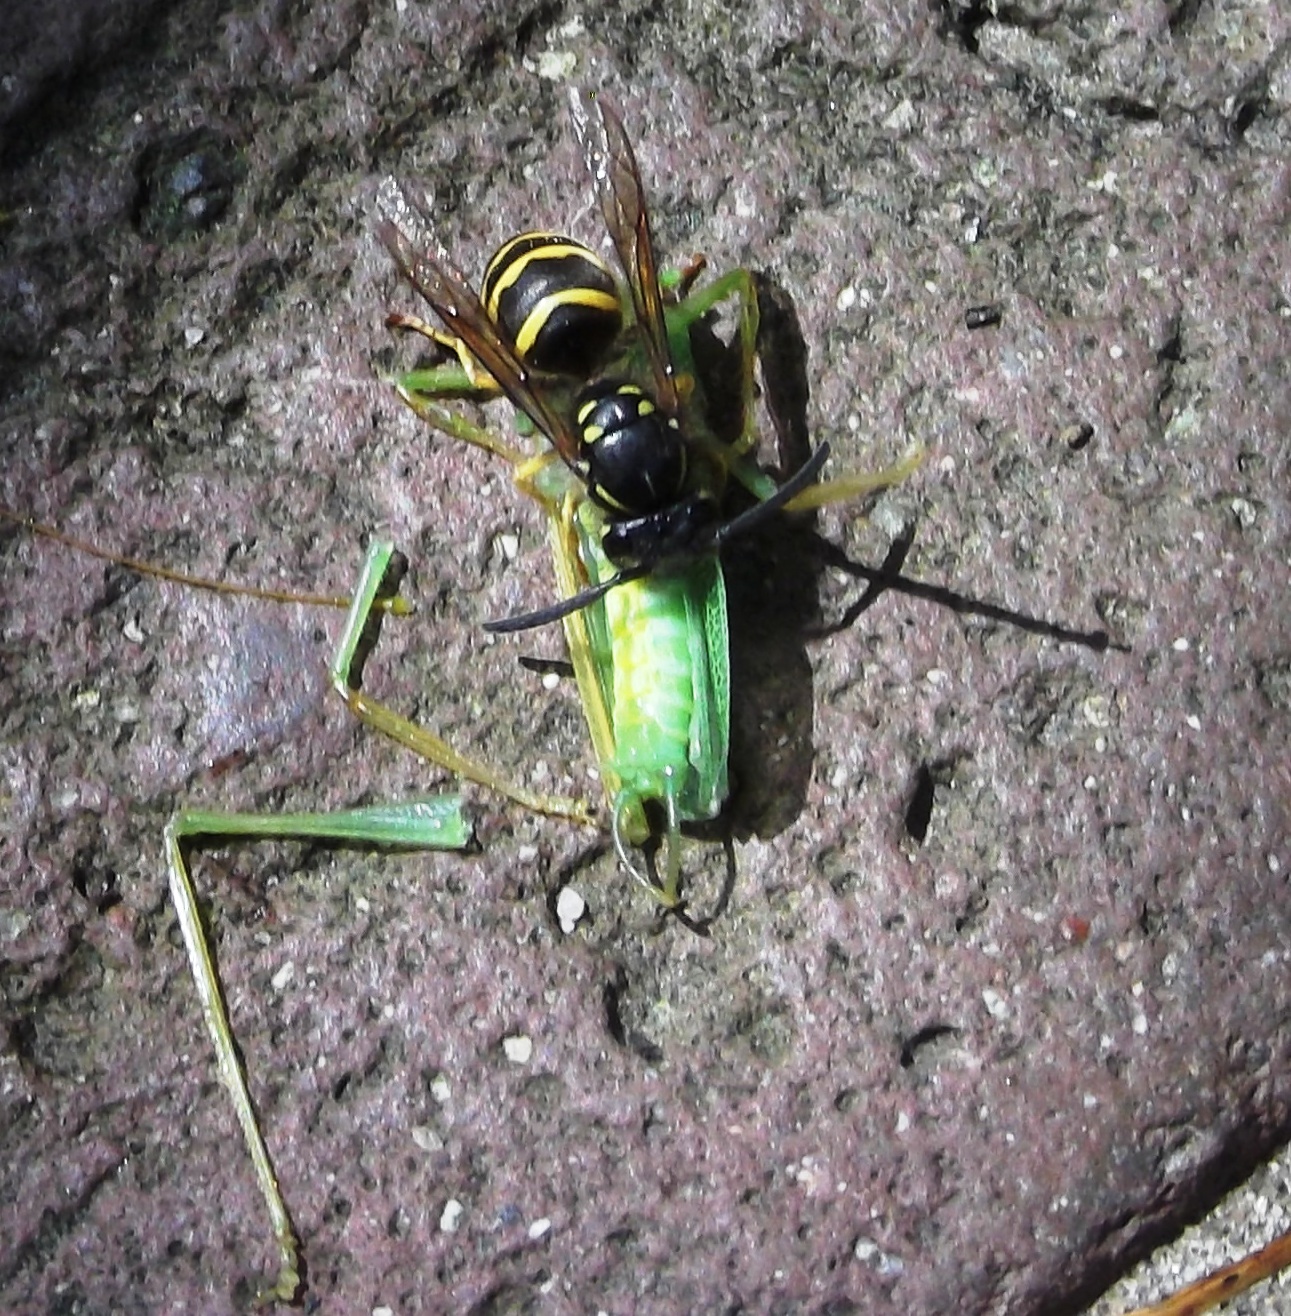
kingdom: Animalia
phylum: Arthropoda
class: Insecta
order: Hymenoptera
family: Vespidae
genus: Vespula
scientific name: Vespula alascensis
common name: Alaska yellowjacket
